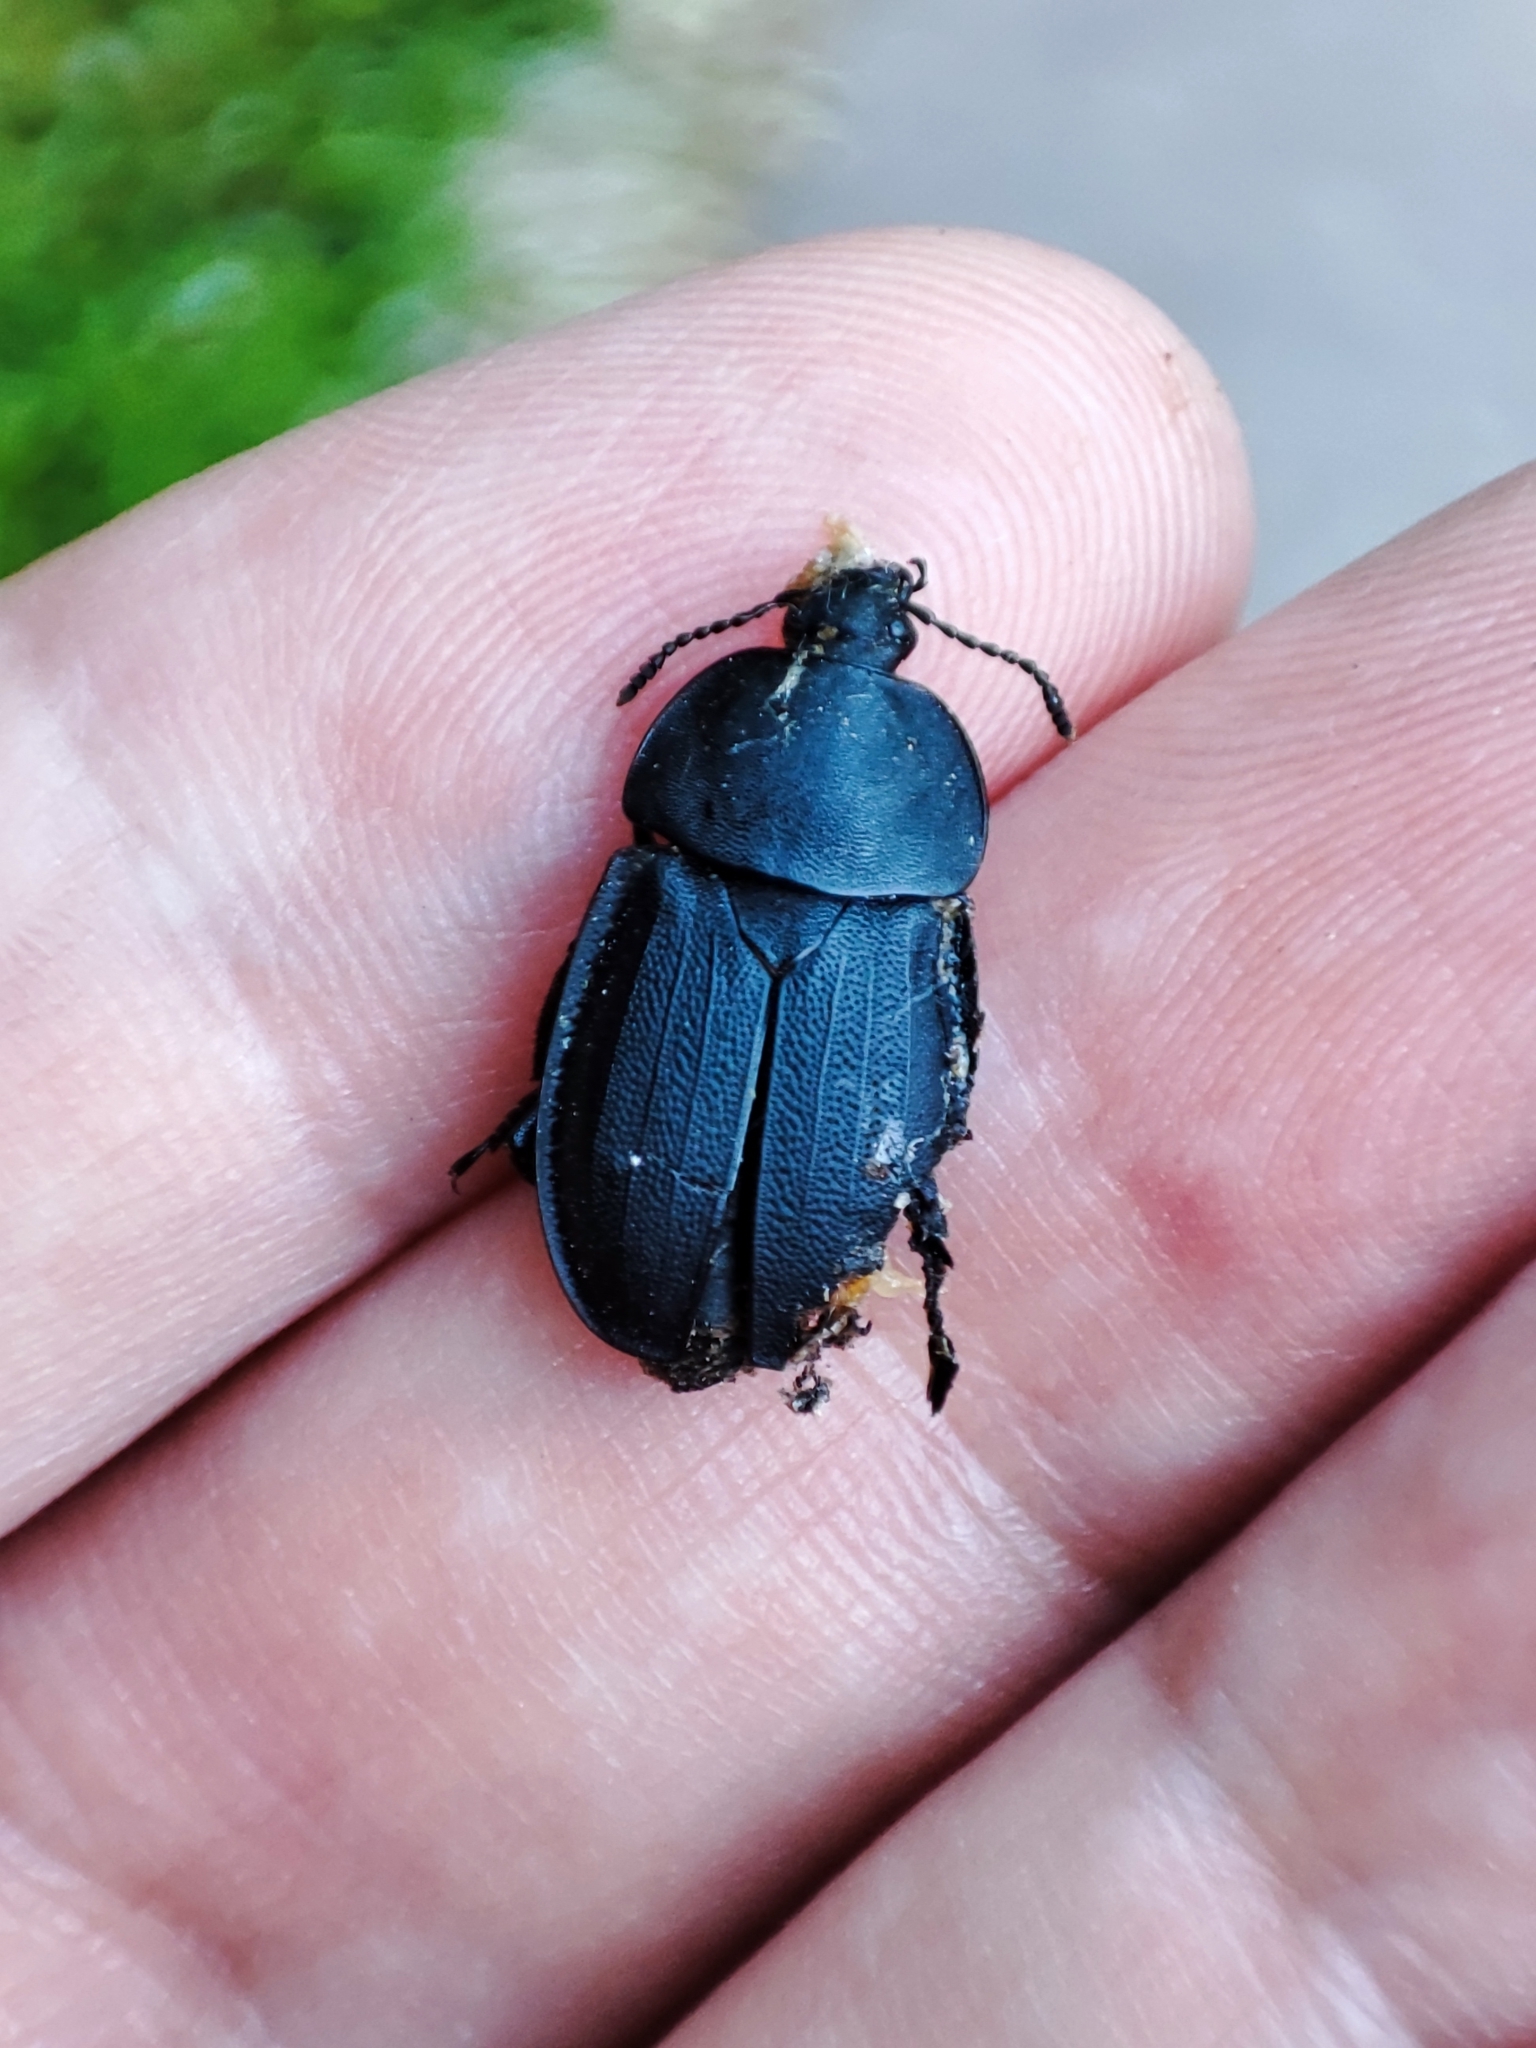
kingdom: Animalia
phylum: Arthropoda
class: Insecta
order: Coleoptera
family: Staphylinidae
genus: Silpha
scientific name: Silpha obscura
